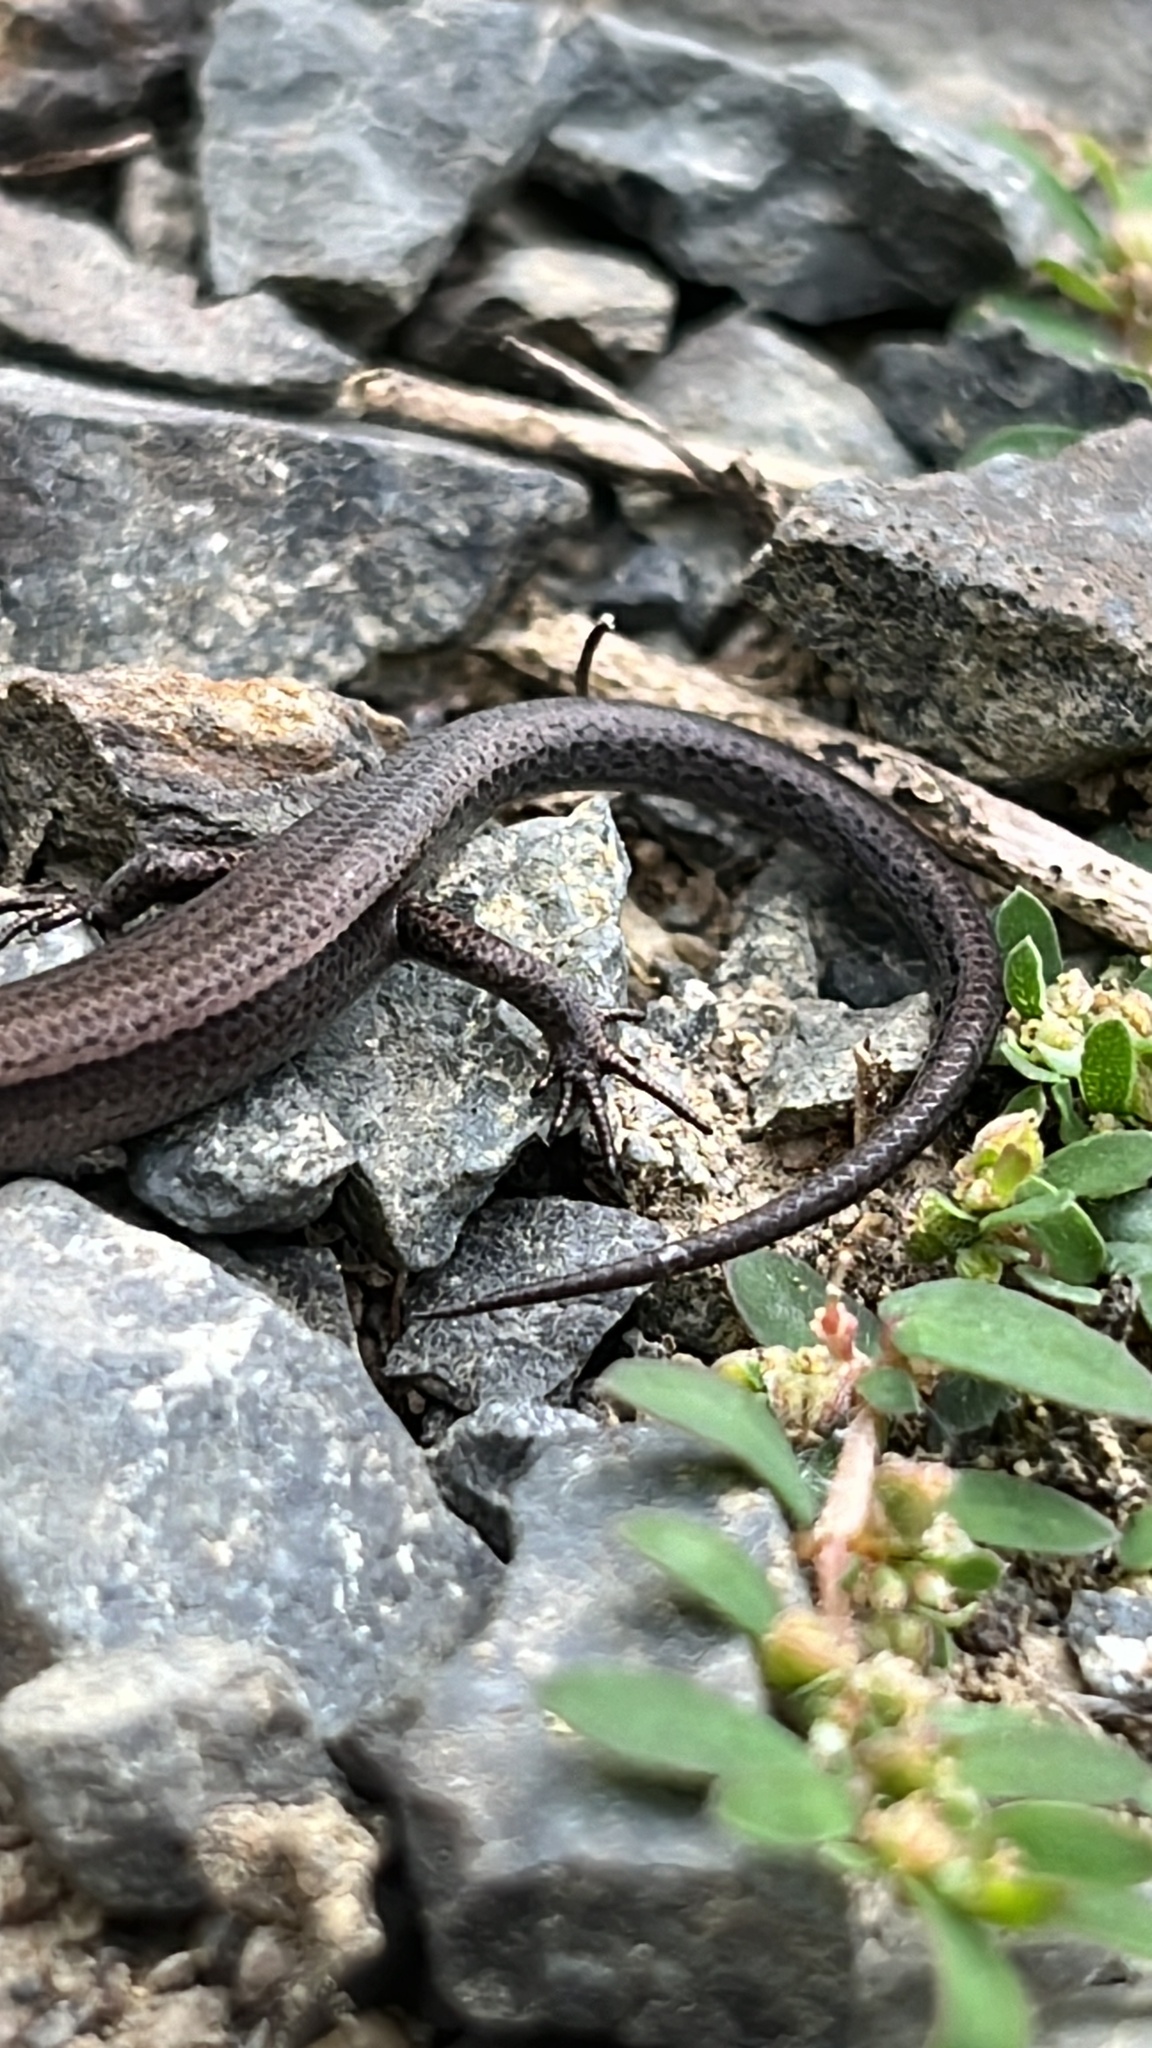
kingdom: Animalia
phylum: Chordata
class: Squamata
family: Scincidae
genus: Lampropholis
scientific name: Lampropholis delicata
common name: Plague skink
